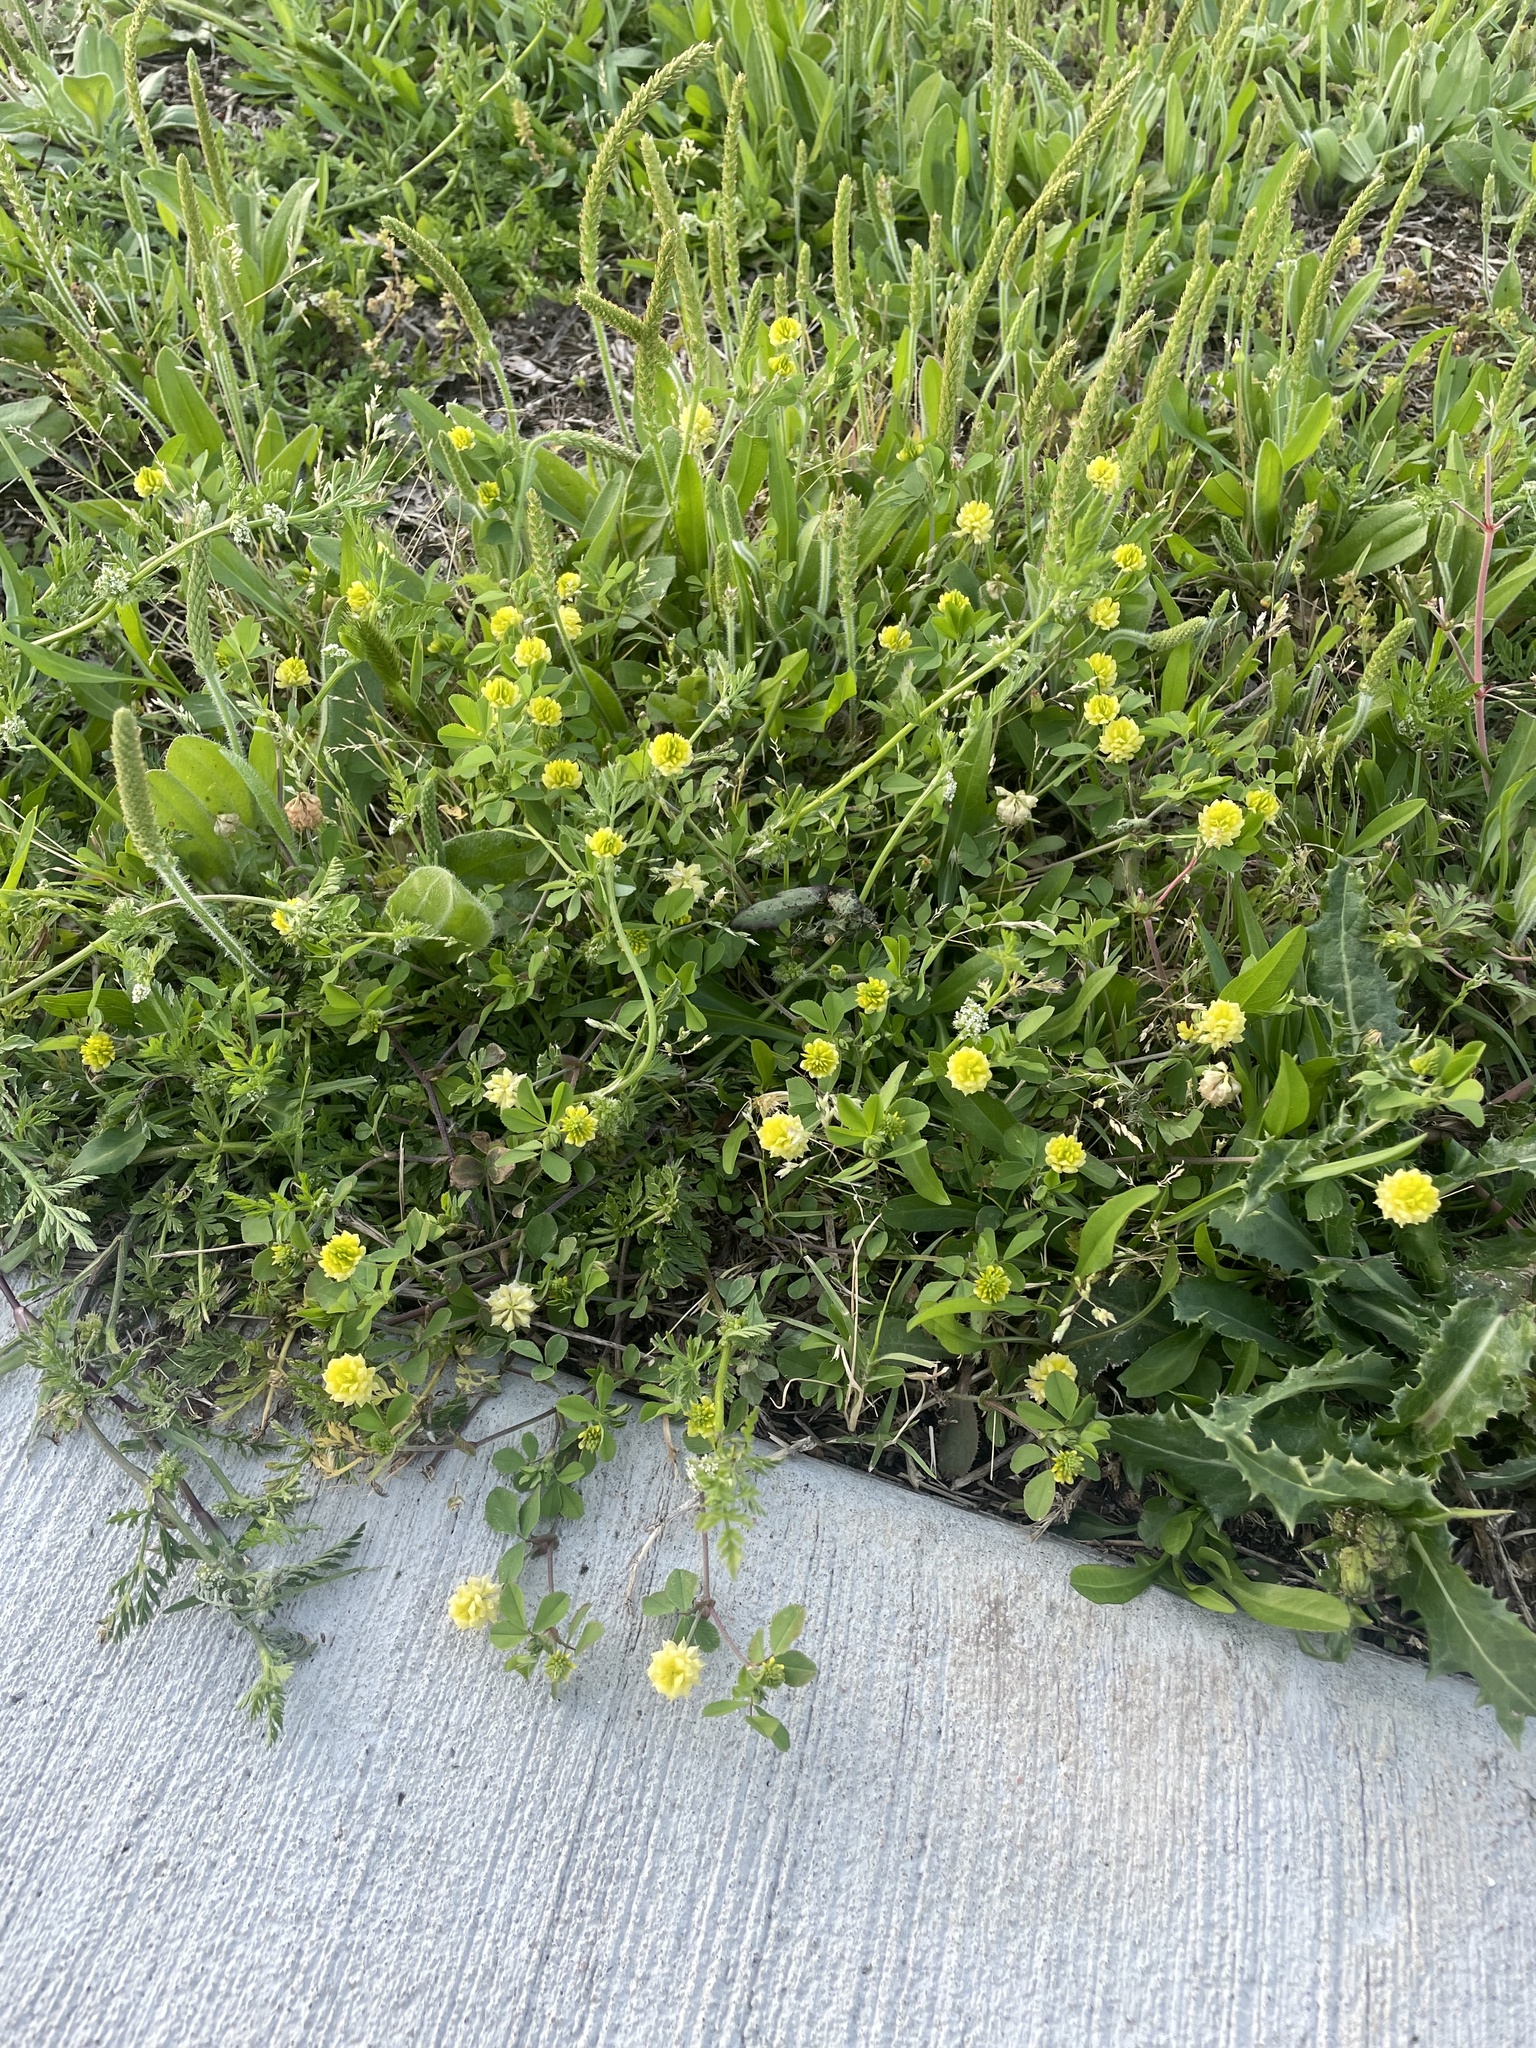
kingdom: Plantae
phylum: Tracheophyta
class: Magnoliopsida
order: Fabales
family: Fabaceae
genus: Trifolium
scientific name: Trifolium campestre
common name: Field clover
